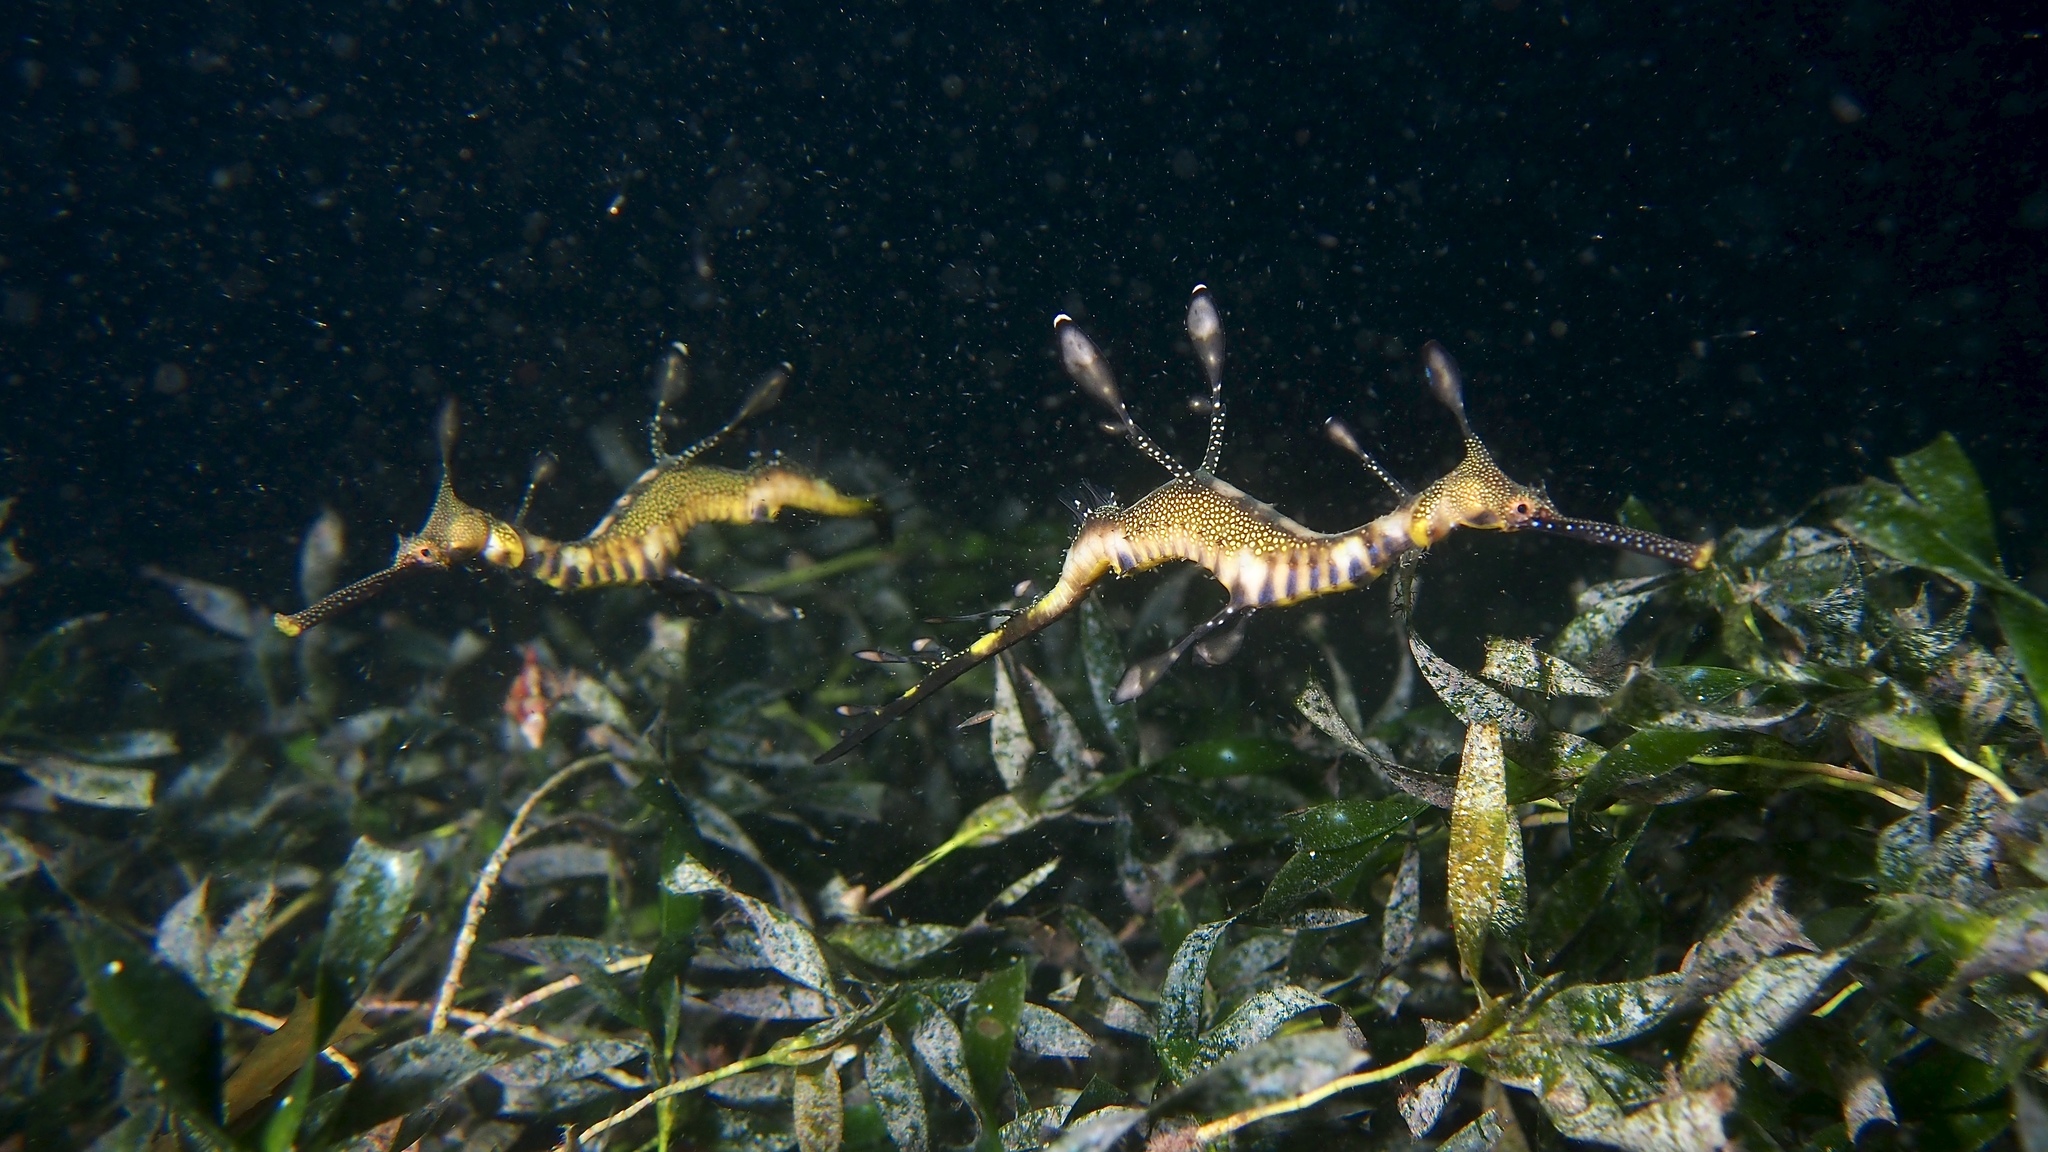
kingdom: Animalia
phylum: Chordata
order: Syngnathiformes
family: Syngnathidae
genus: Phyllopteryx
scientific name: Phyllopteryx taeniolatus
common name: Common seadragon
